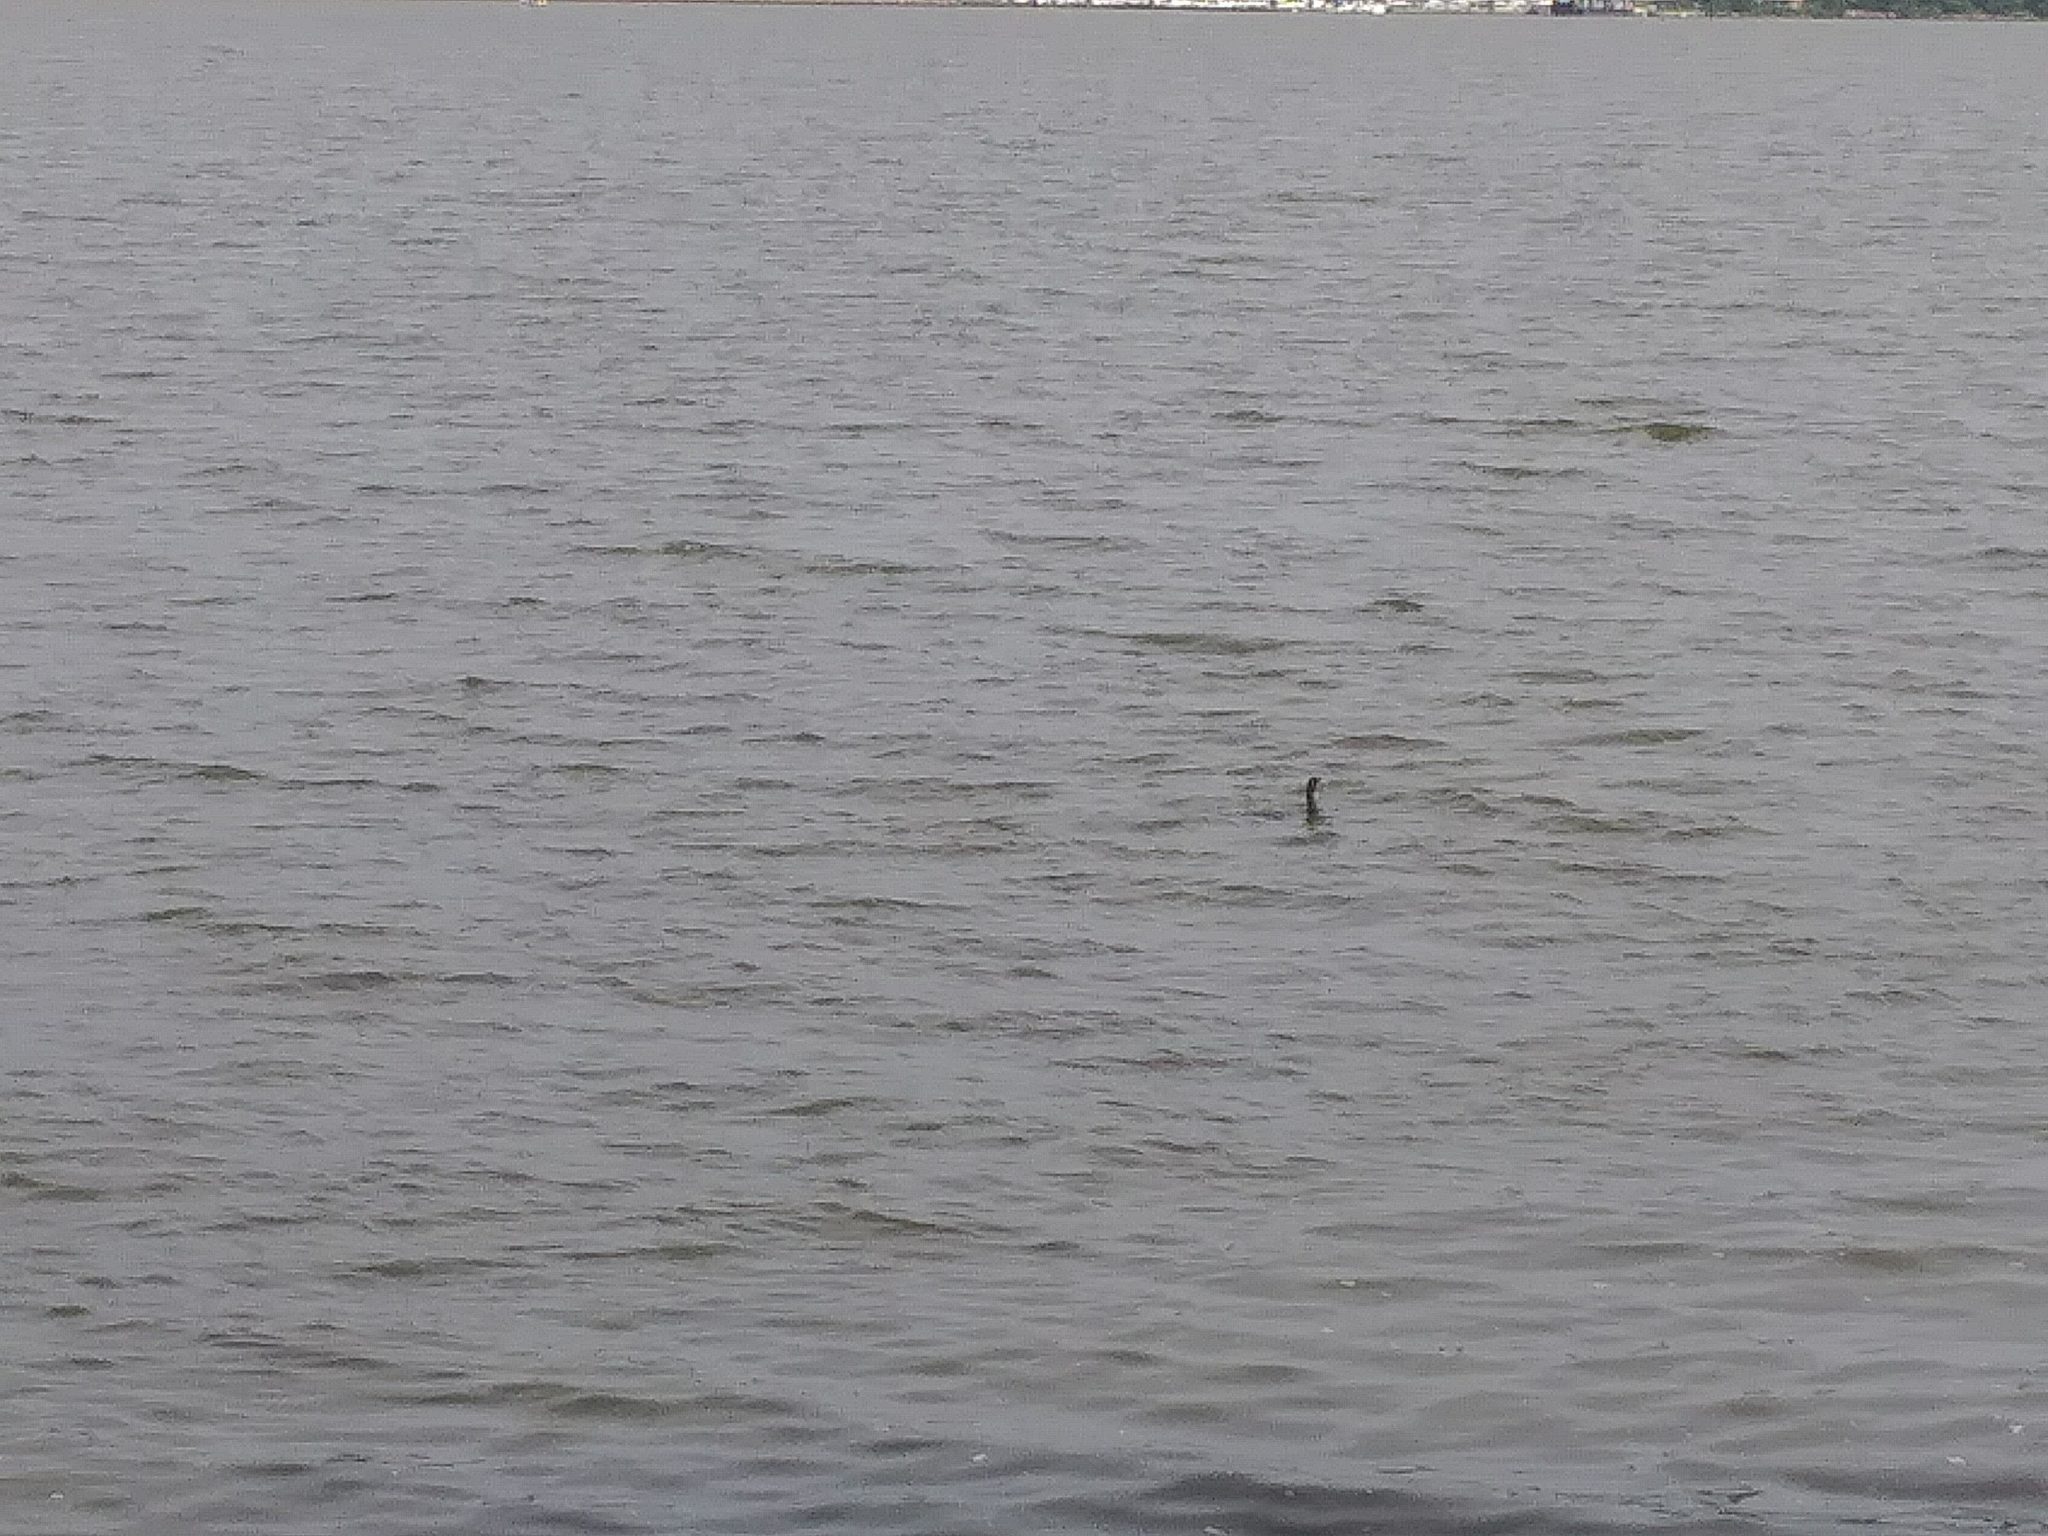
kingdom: Animalia
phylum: Chordata
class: Aves
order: Suliformes
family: Phalacrocoracidae
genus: Phalacrocorax
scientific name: Phalacrocorax auritus
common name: Double-crested cormorant
